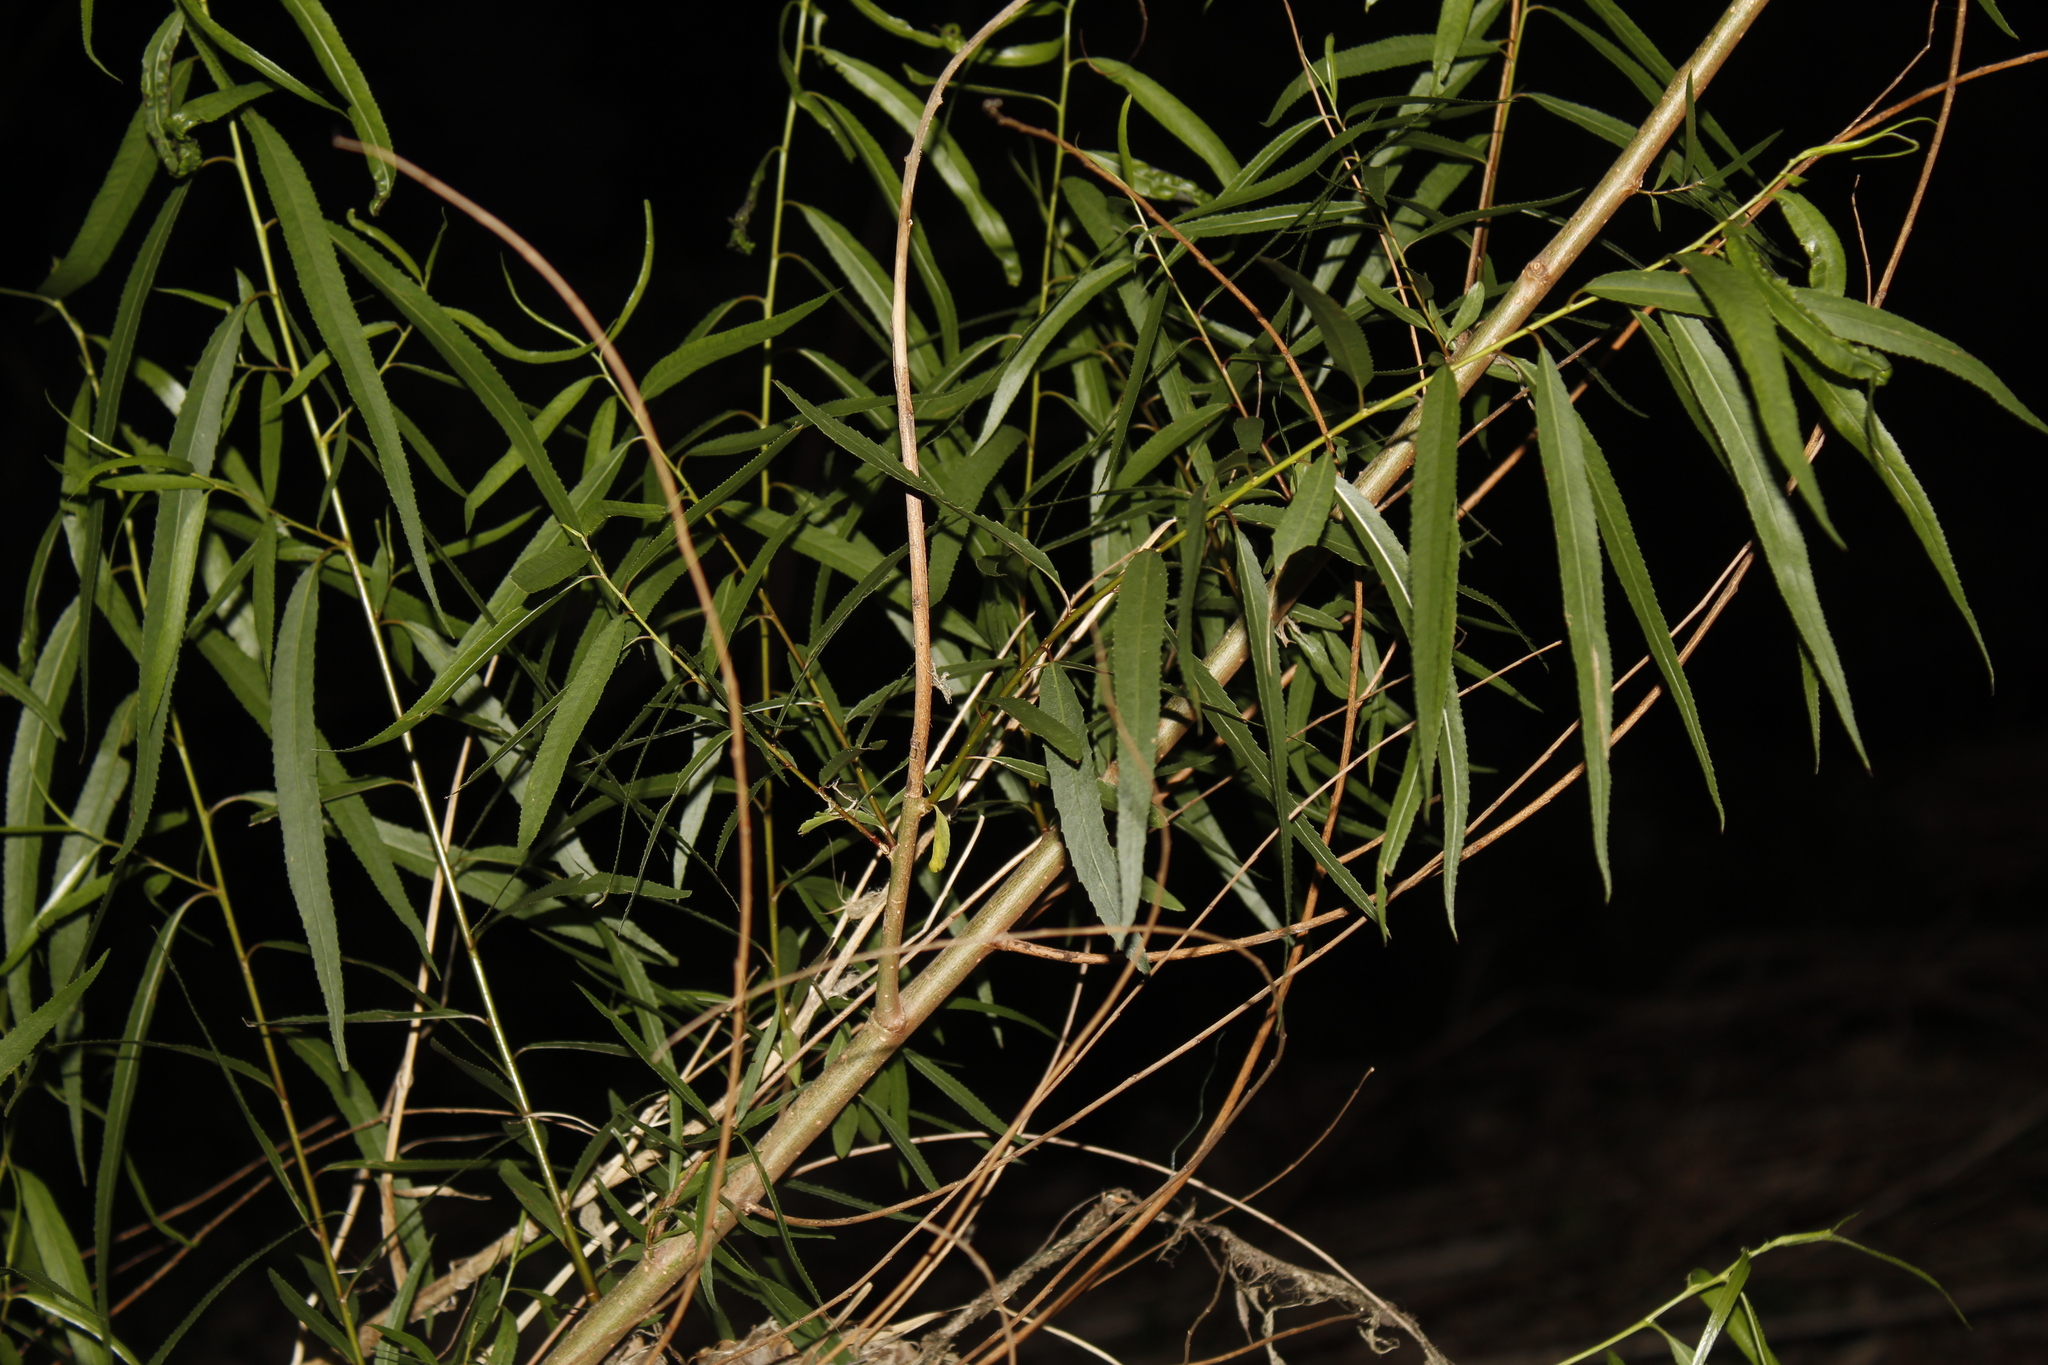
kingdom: Plantae
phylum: Tracheophyta
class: Magnoliopsida
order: Malpighiales
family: Salicaceae
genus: Salix
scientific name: Salix nigra
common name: Black willow
